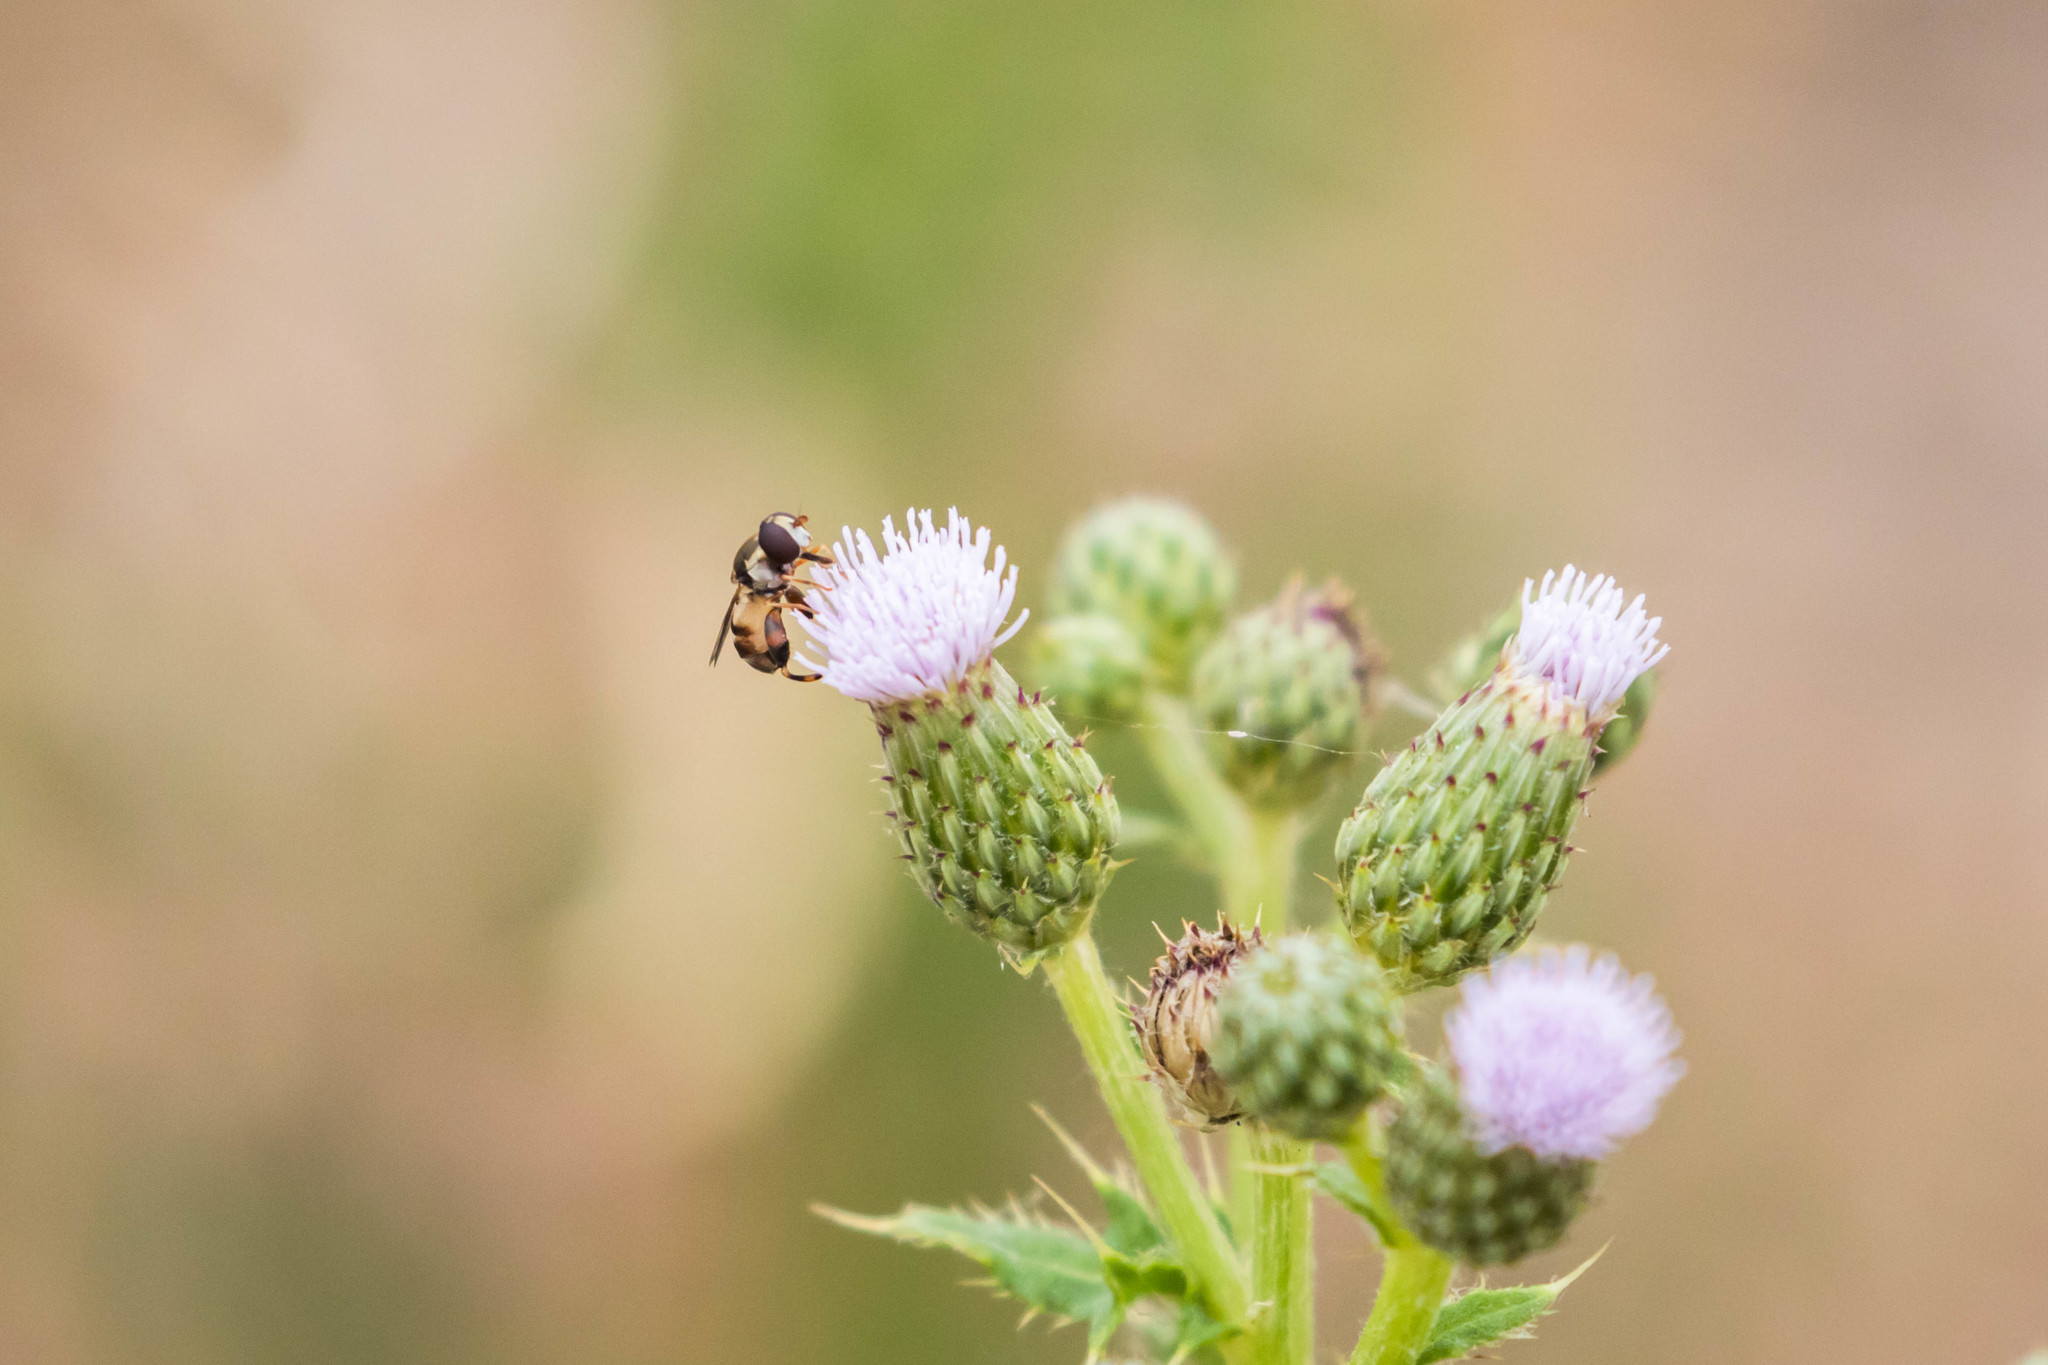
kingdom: Animalia
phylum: Arthropoda
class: Insecta
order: Diptera
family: Syrphidae
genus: Syritta
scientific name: Syritta pipiens
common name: Hover fly
